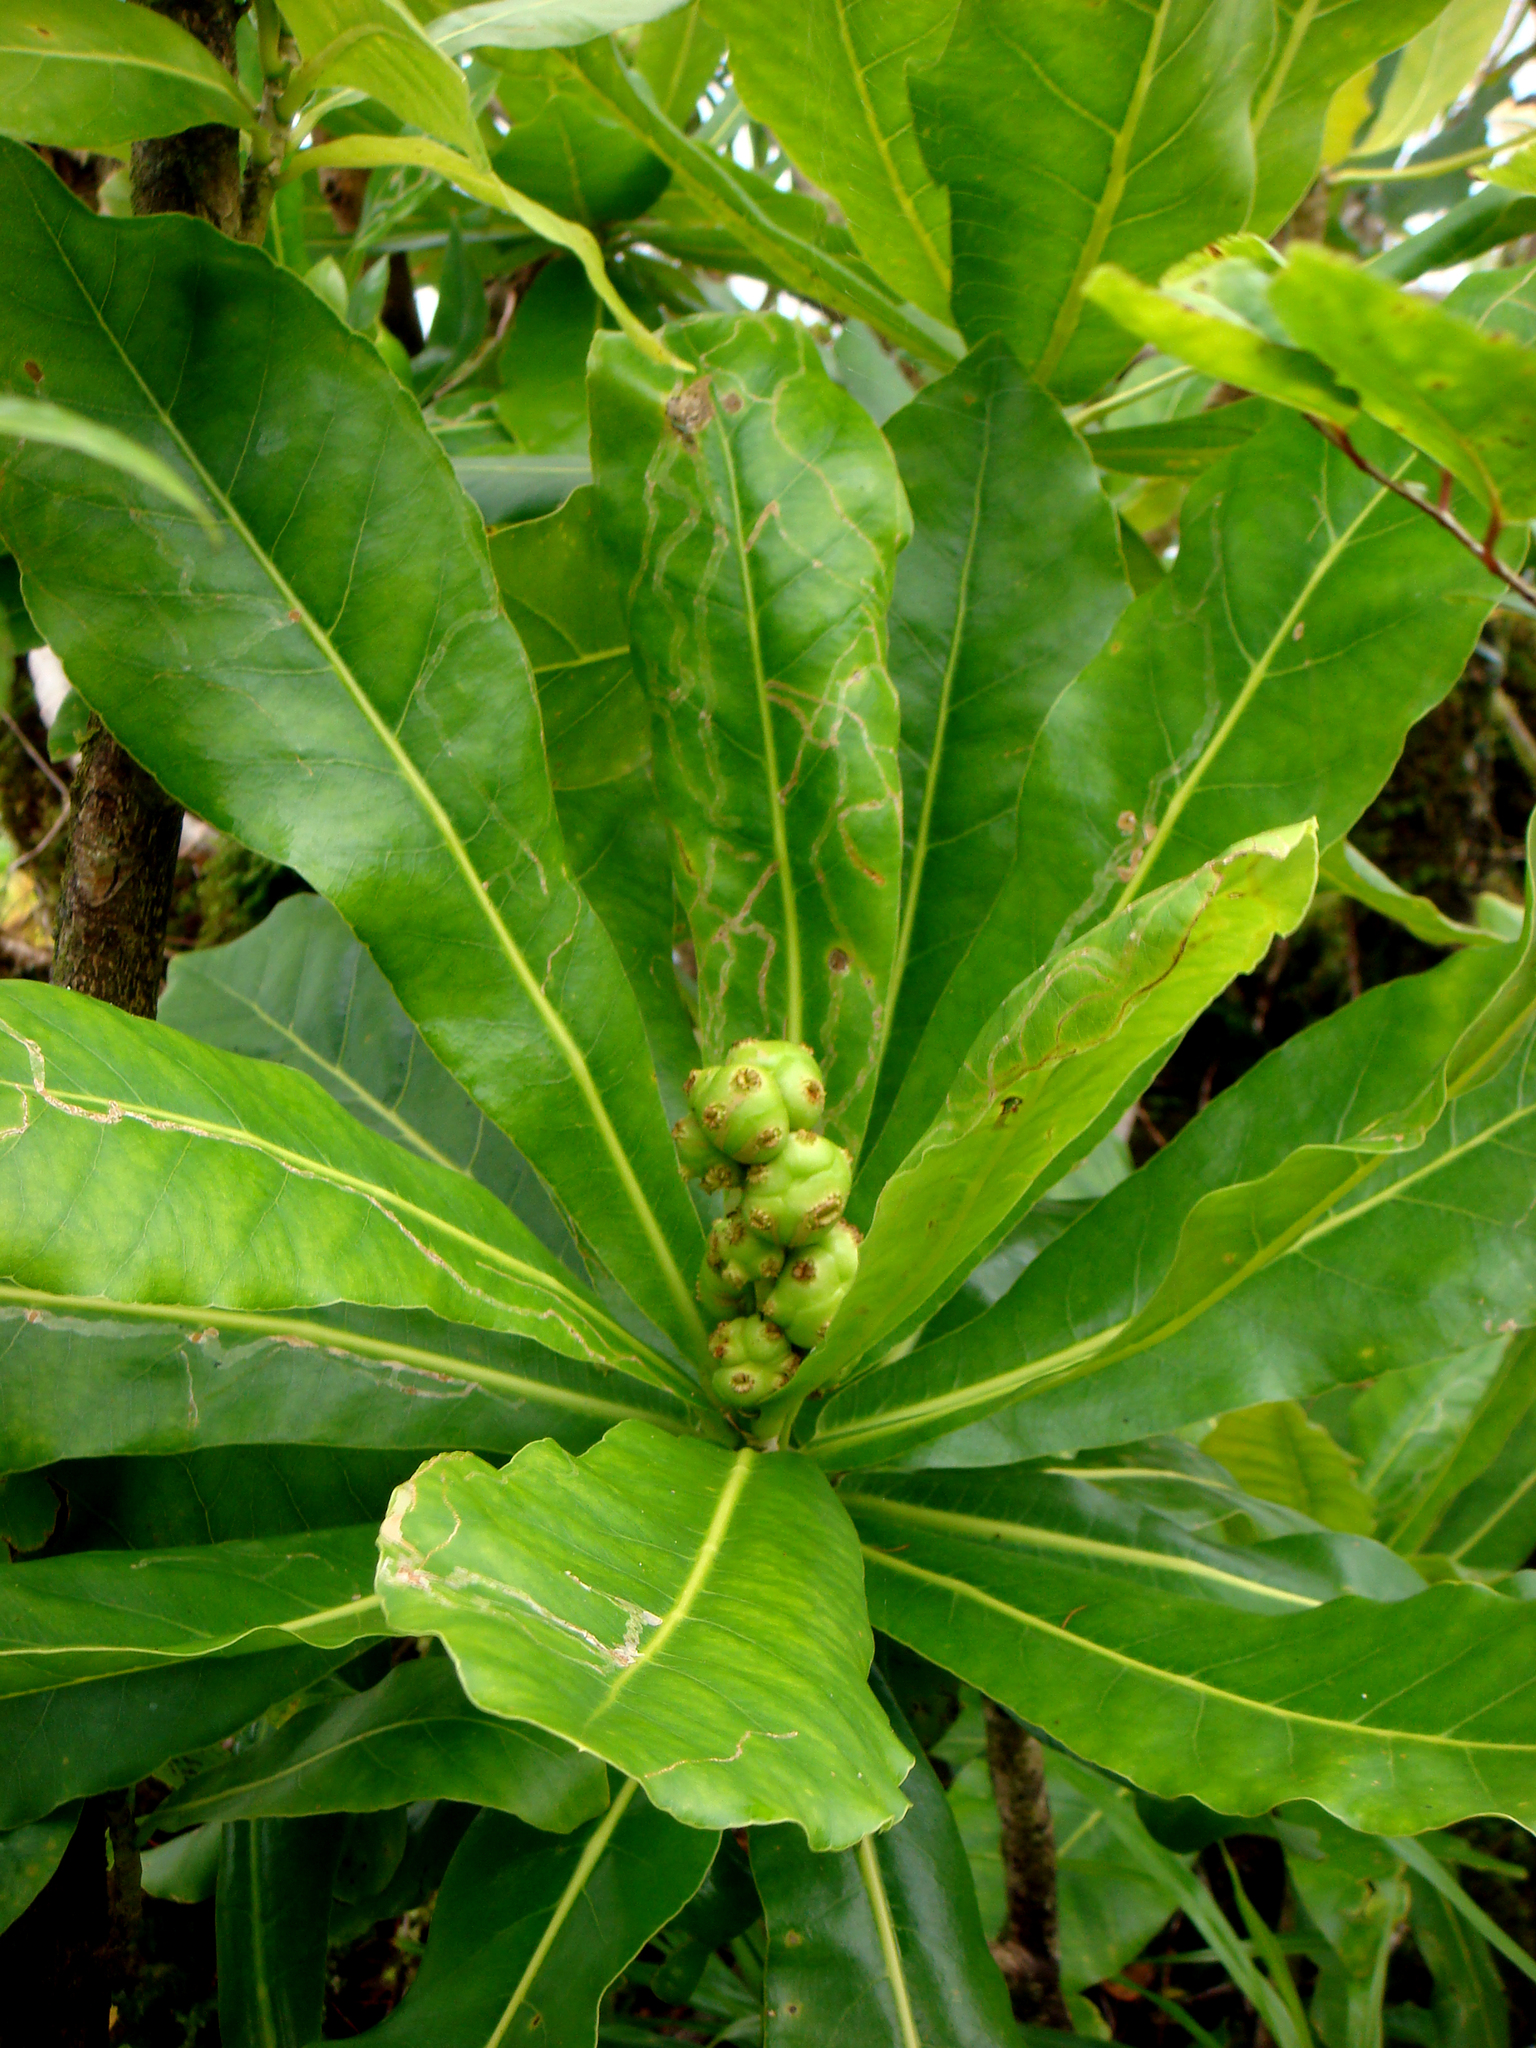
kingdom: Plantae
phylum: Tracheophyta
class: Magnoliopsida
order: Apiales
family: Araliaceae
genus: Meryta
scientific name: Meryta pauciflora
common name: Rarotonga meryta
